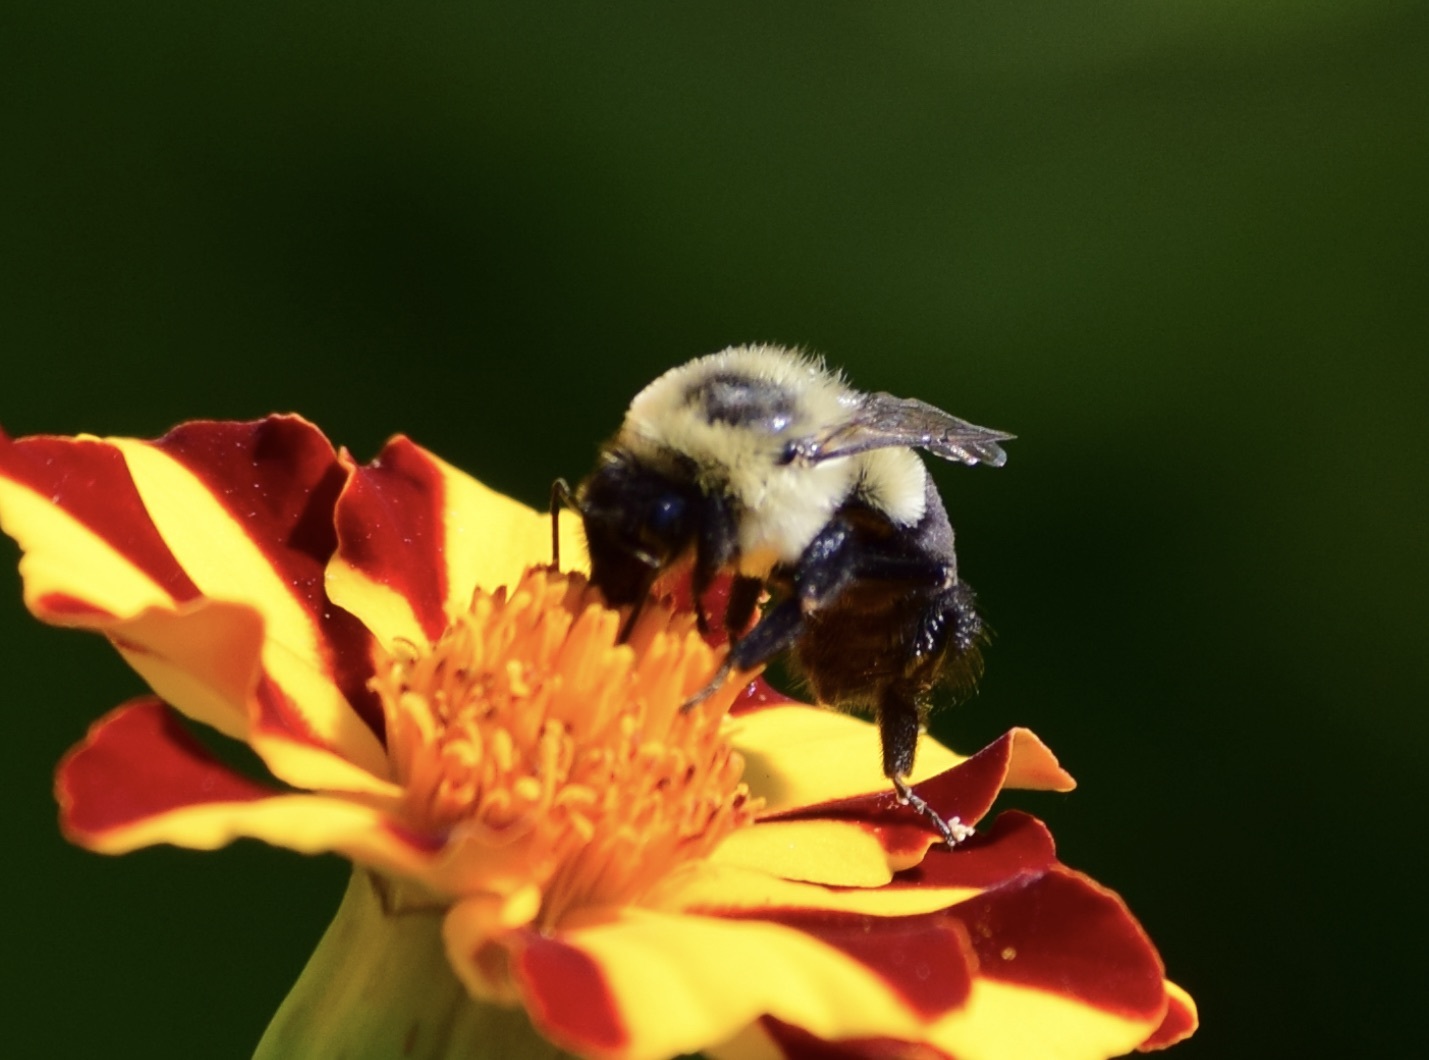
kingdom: Animalia
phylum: Arthropoda
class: Insecta
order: Hymenoptera
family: Apidae
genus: Bombus
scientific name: Bombus impatiens
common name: Common eastern bumble bee
